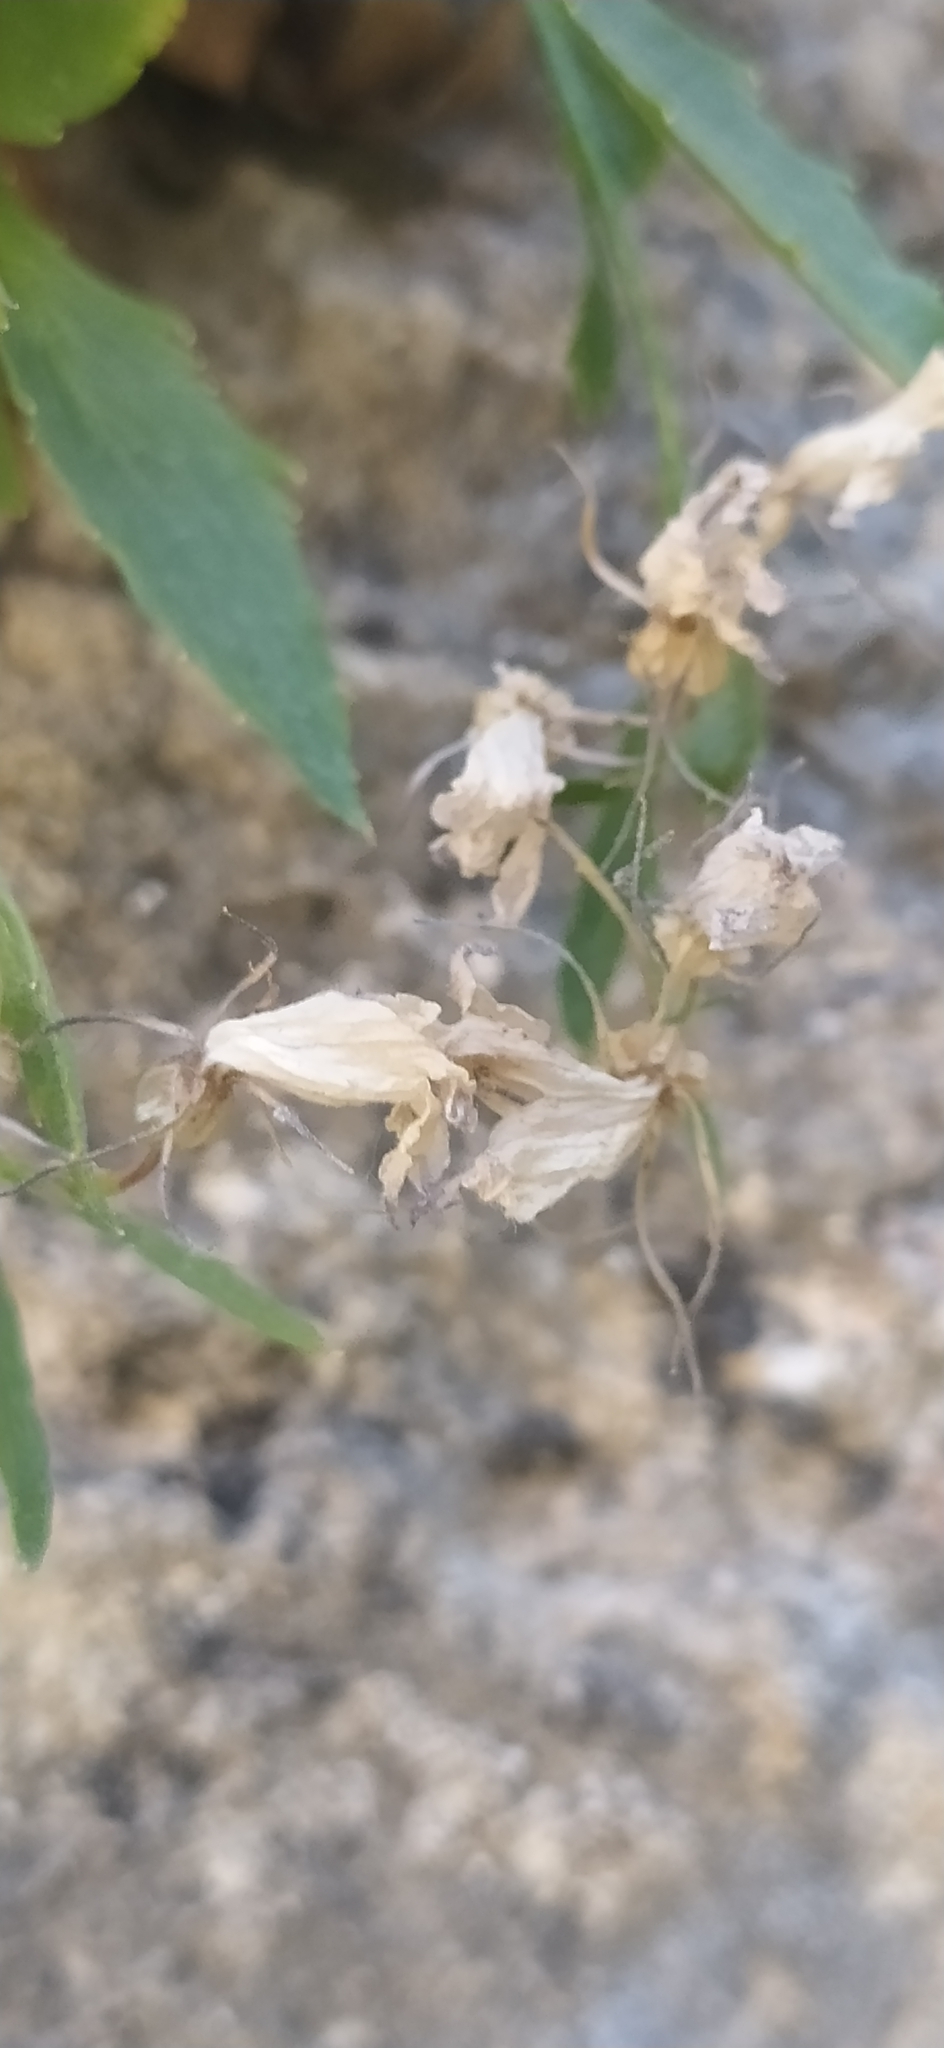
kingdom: Plantae
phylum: Tracheophyta
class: Magnoliopsida
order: Asterales
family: Campanulaceae
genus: Campanula
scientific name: Campanula lehmanniana
